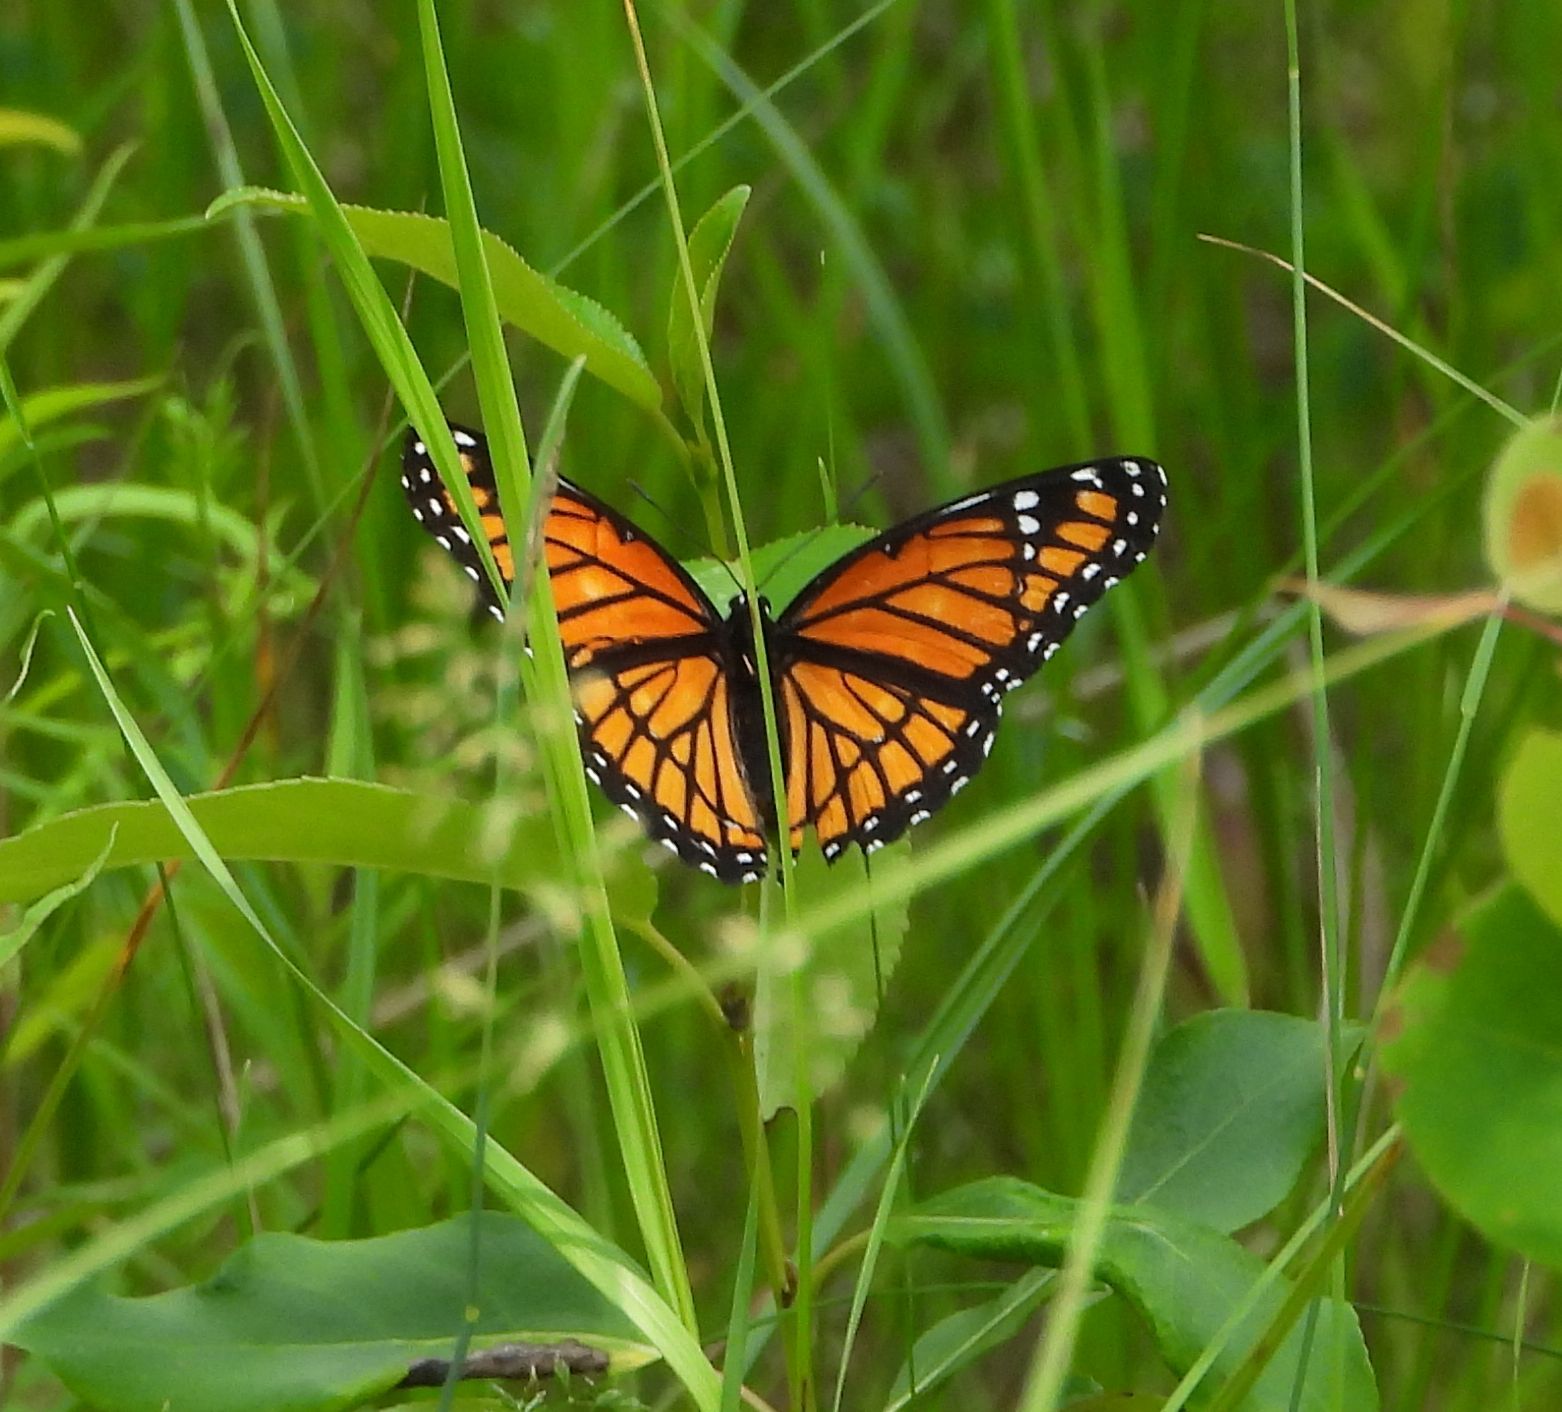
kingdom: Animalia
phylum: Arthropoda
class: Insecta
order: Lepidoptera
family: Nymphalidae
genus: Limenitis
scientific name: Limenitis archippus
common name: Viceroy
